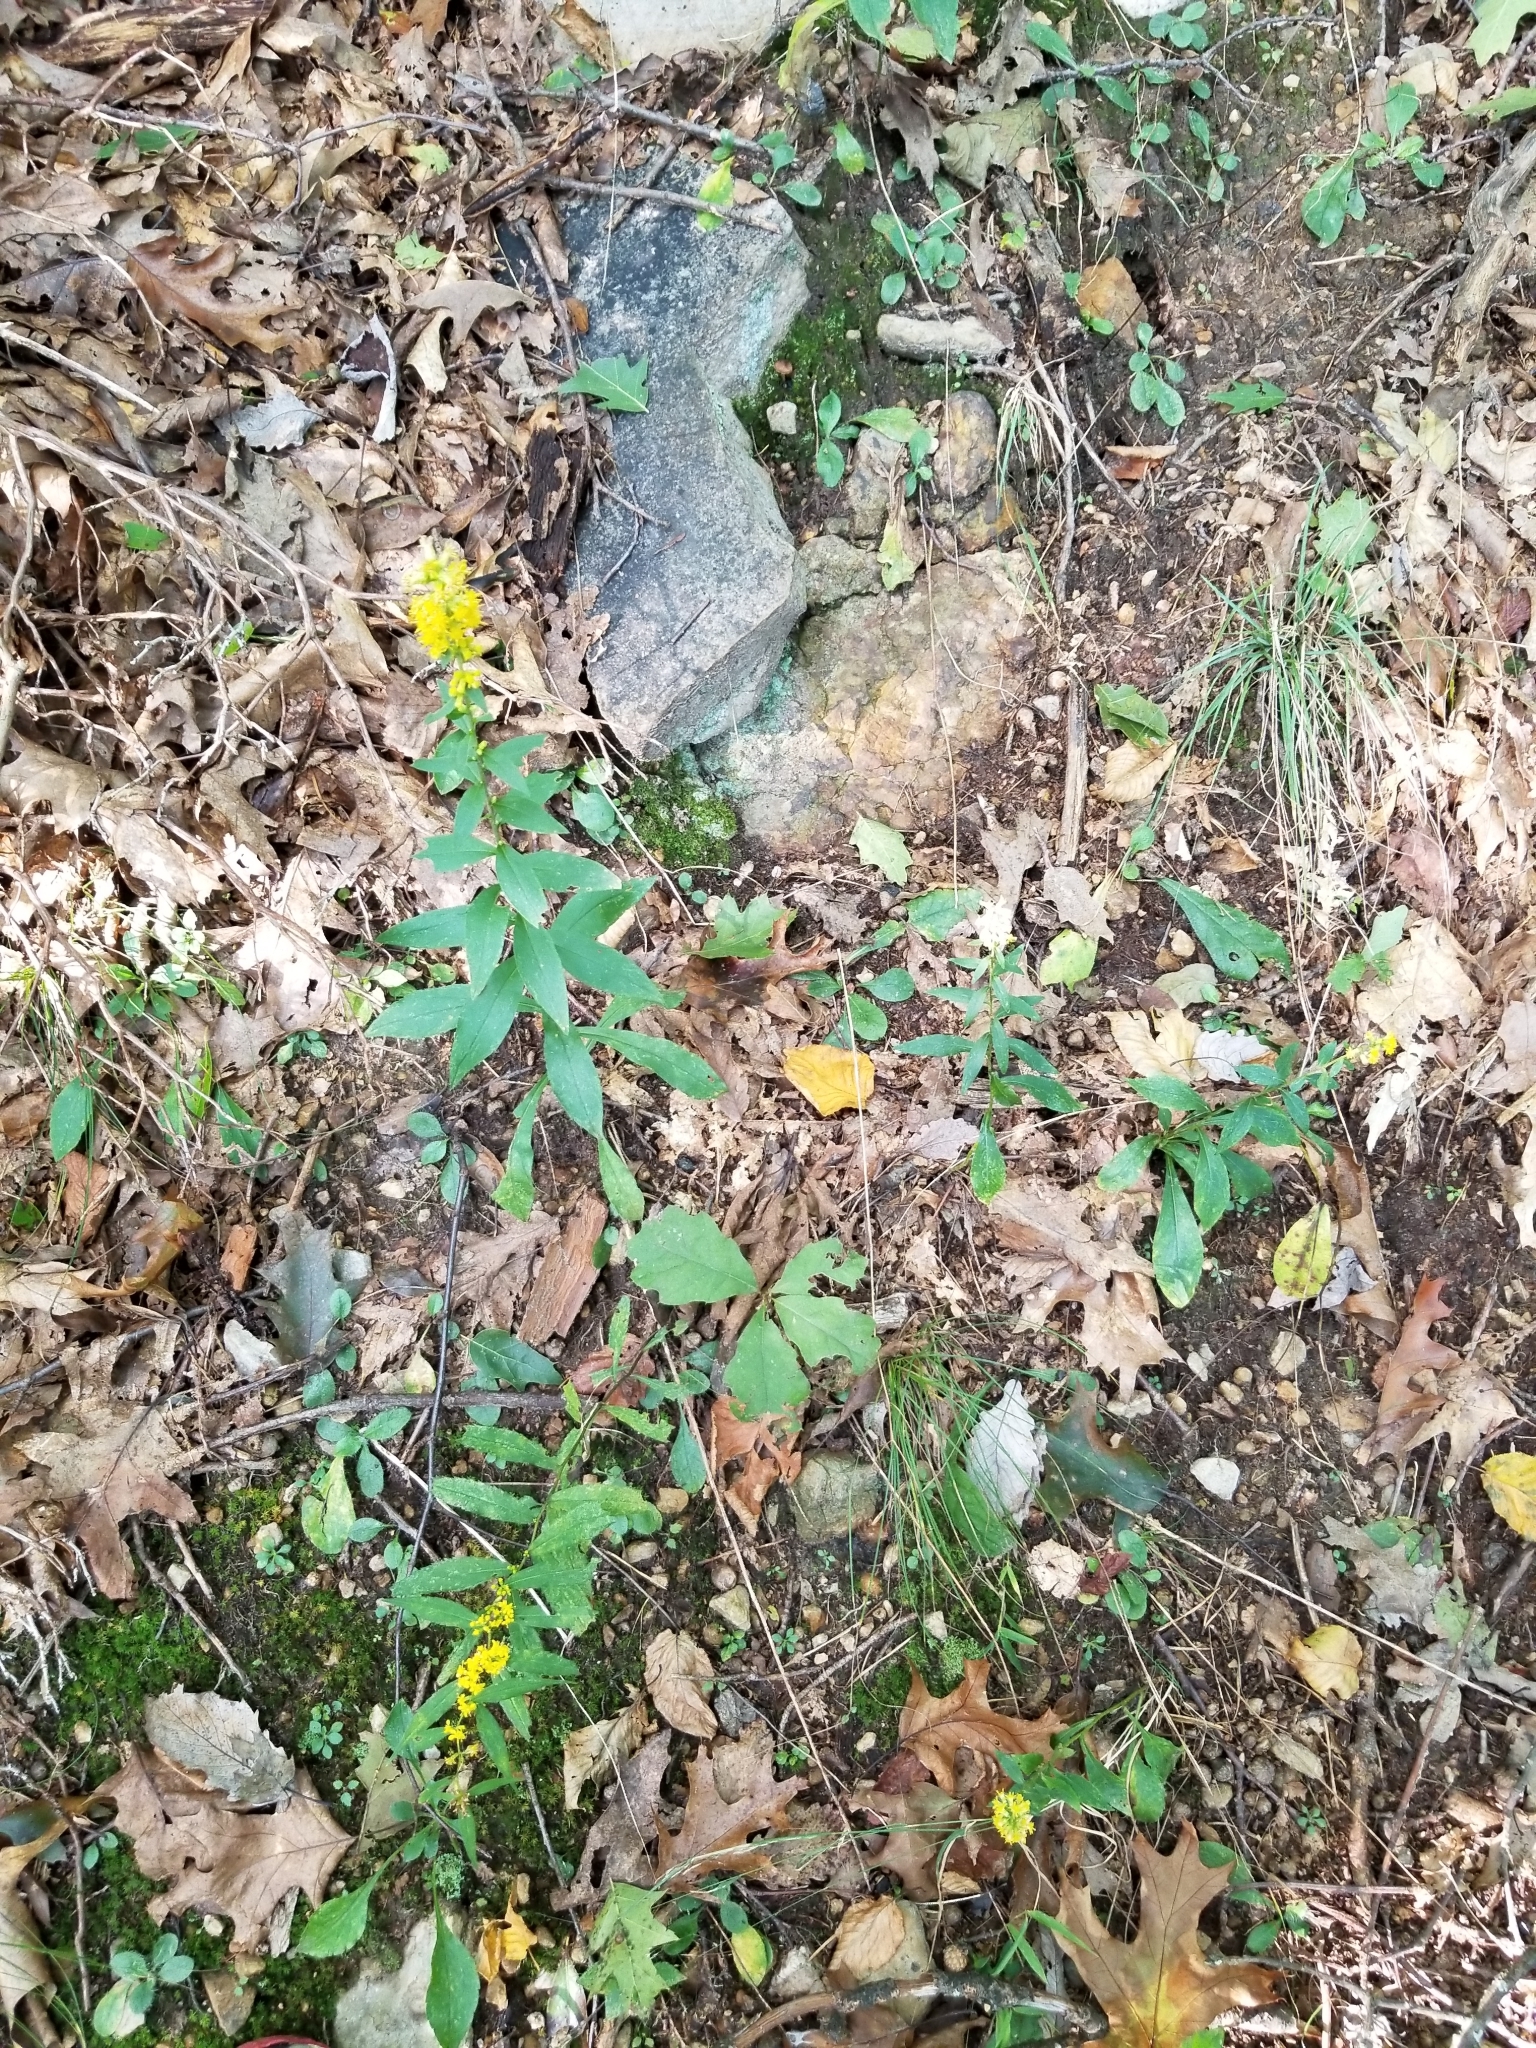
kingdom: Plantae
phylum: Tracheophyta
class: Magnoliopsida
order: Asterales
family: Asteraceae
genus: Solidago
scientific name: Solidago hispida
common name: Hairy goldenrod
